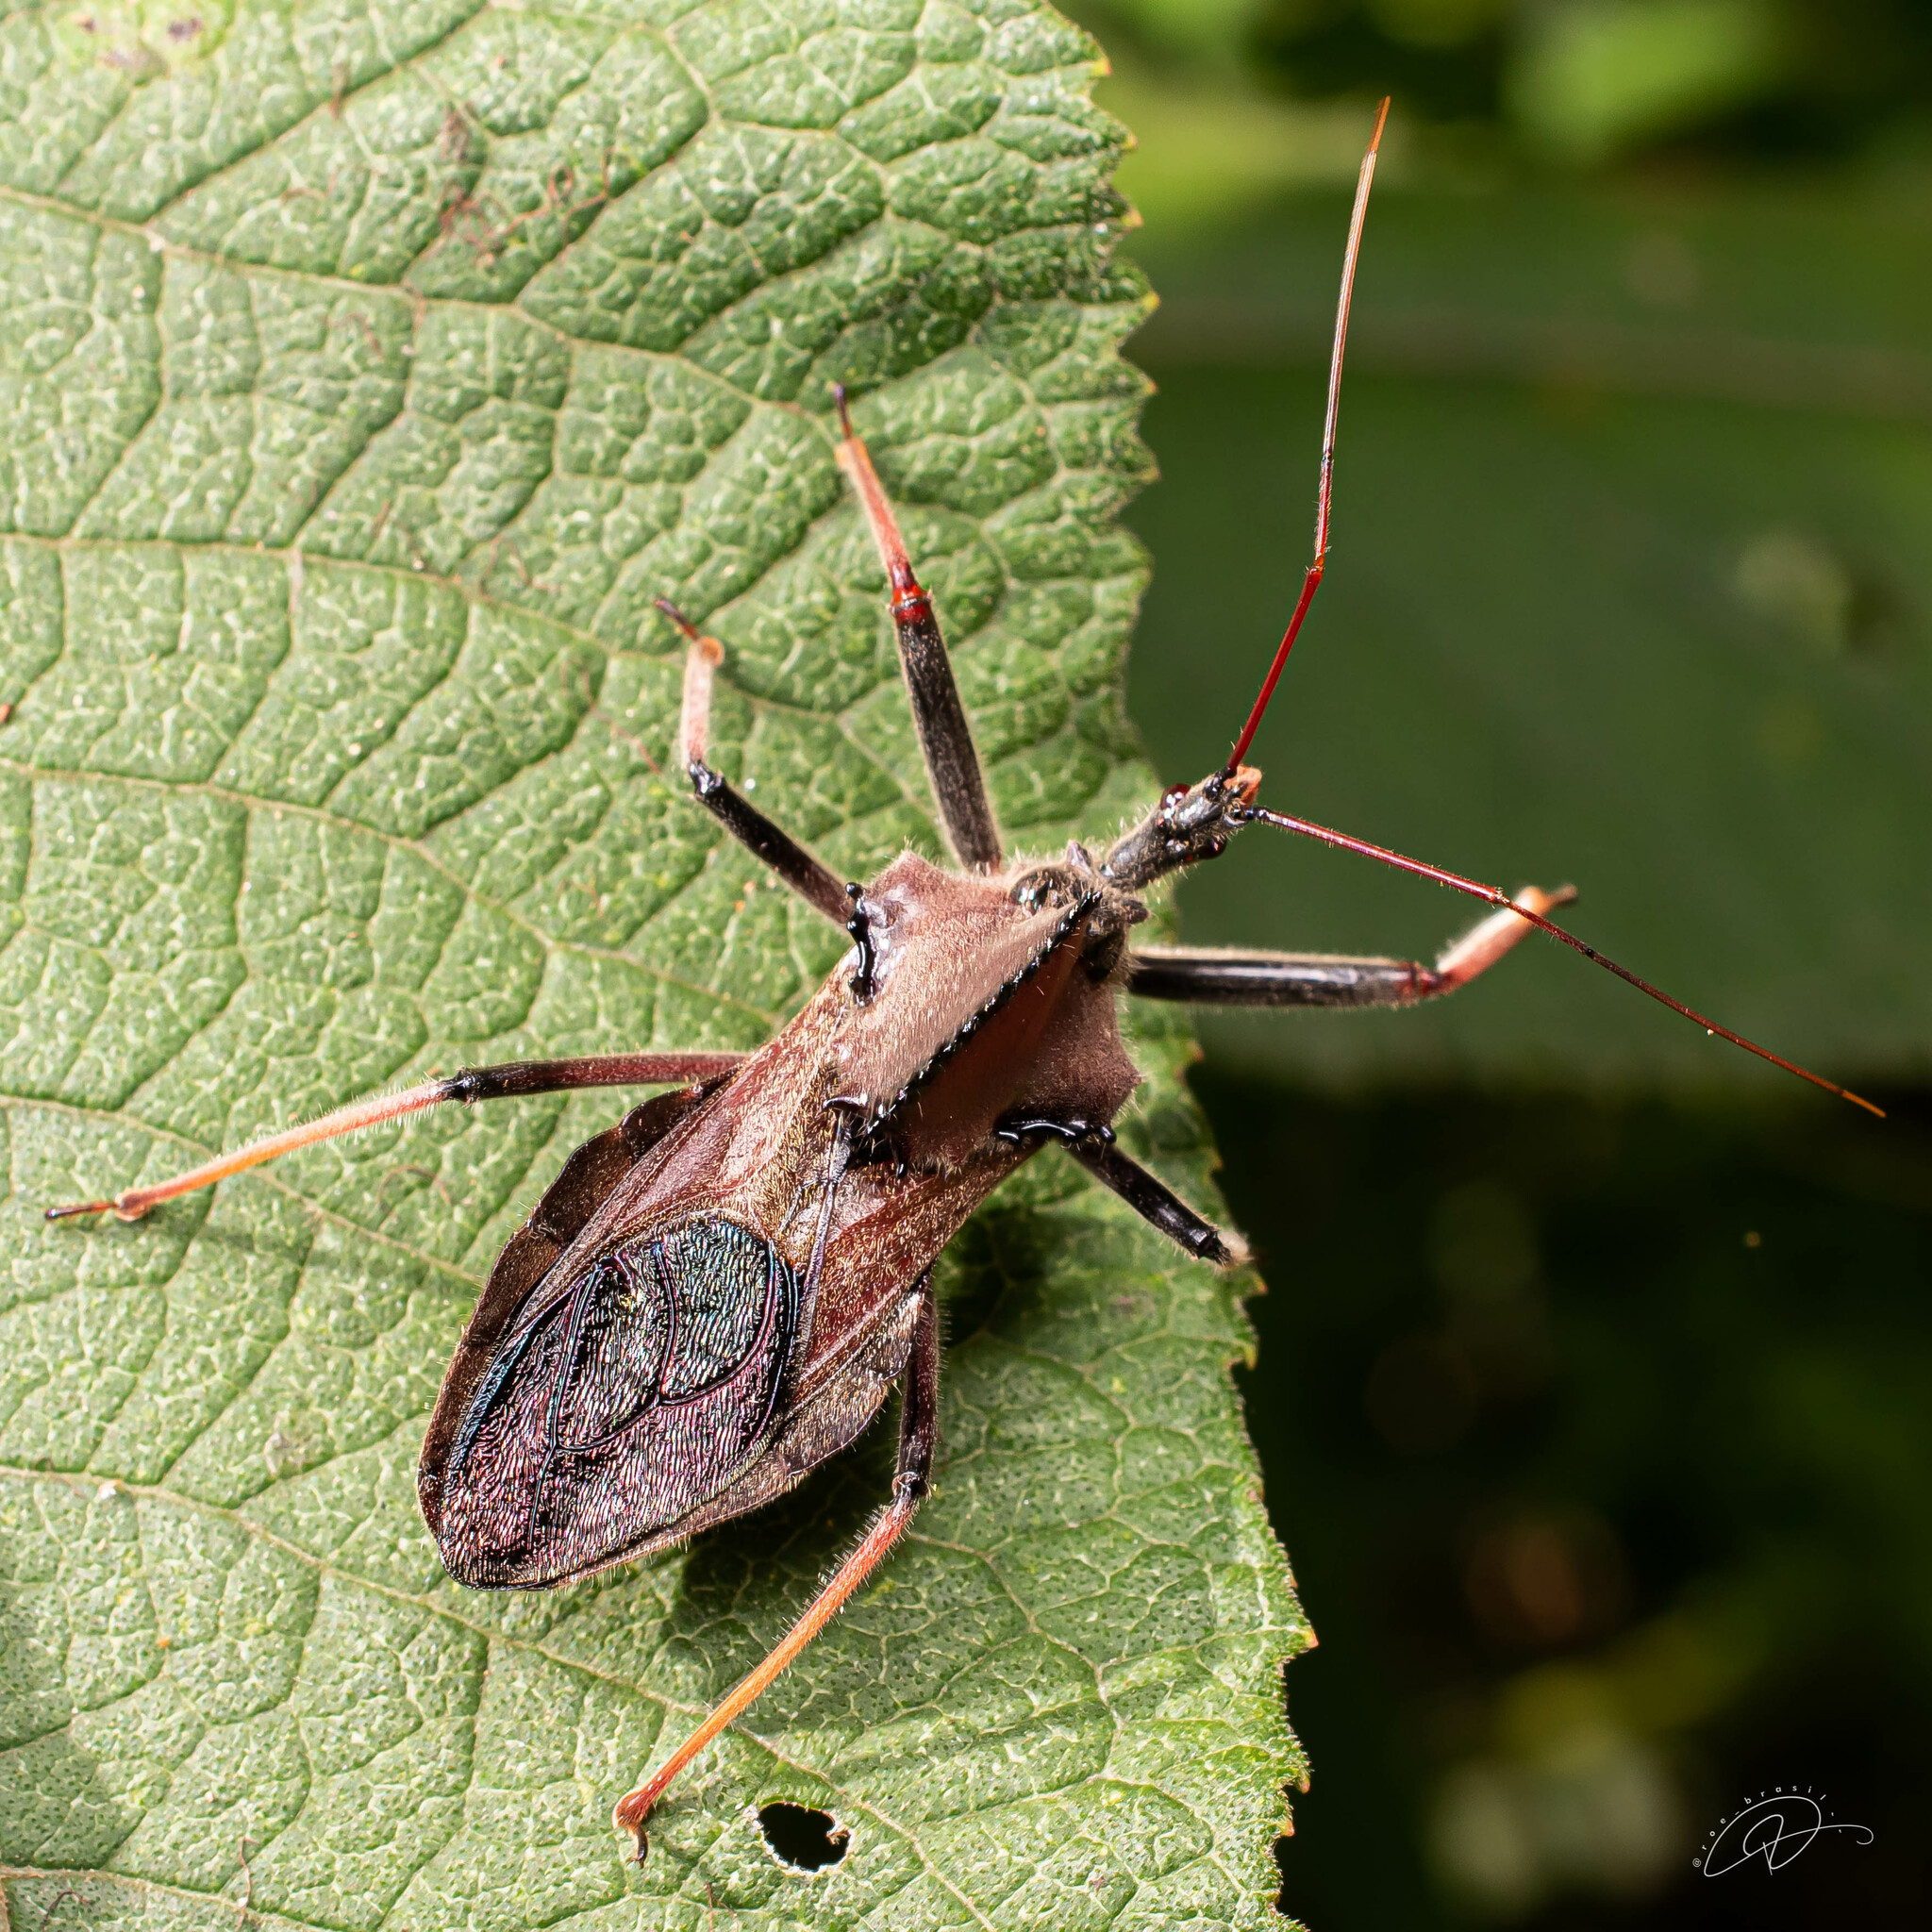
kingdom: Animalia
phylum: Arthropoda
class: Insecta
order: Hemiptera
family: Reduviidae
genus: Arilus
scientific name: Arilus carinatus
